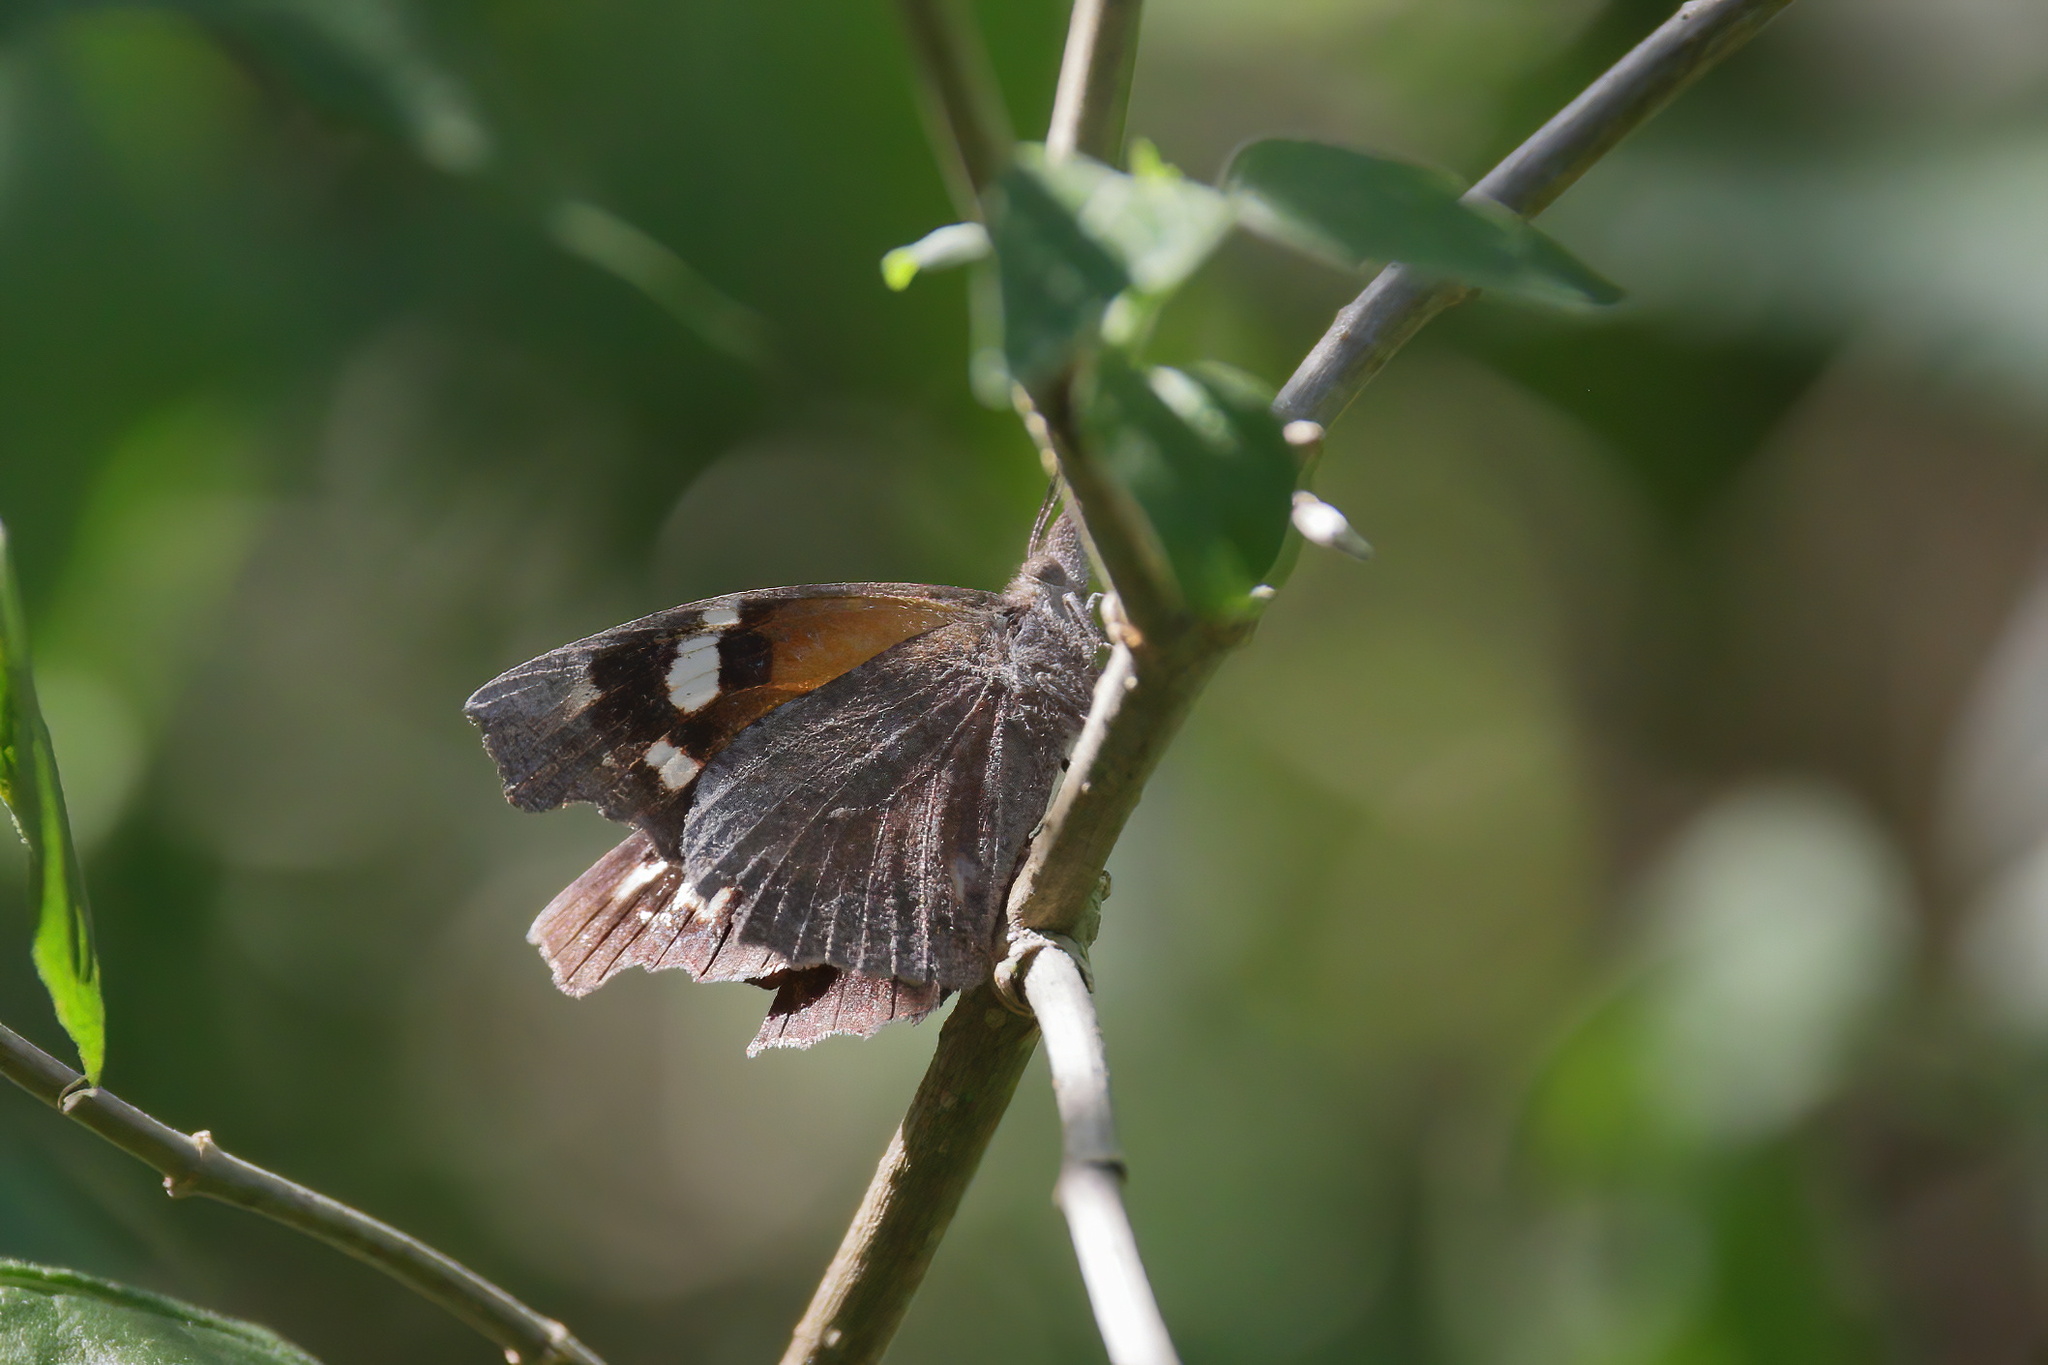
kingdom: Animalia
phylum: Arthropoda
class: Insecta
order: Lepidoptera
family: Nymphalidae
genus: Libytheana
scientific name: Libytheana carinenta
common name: American snout
